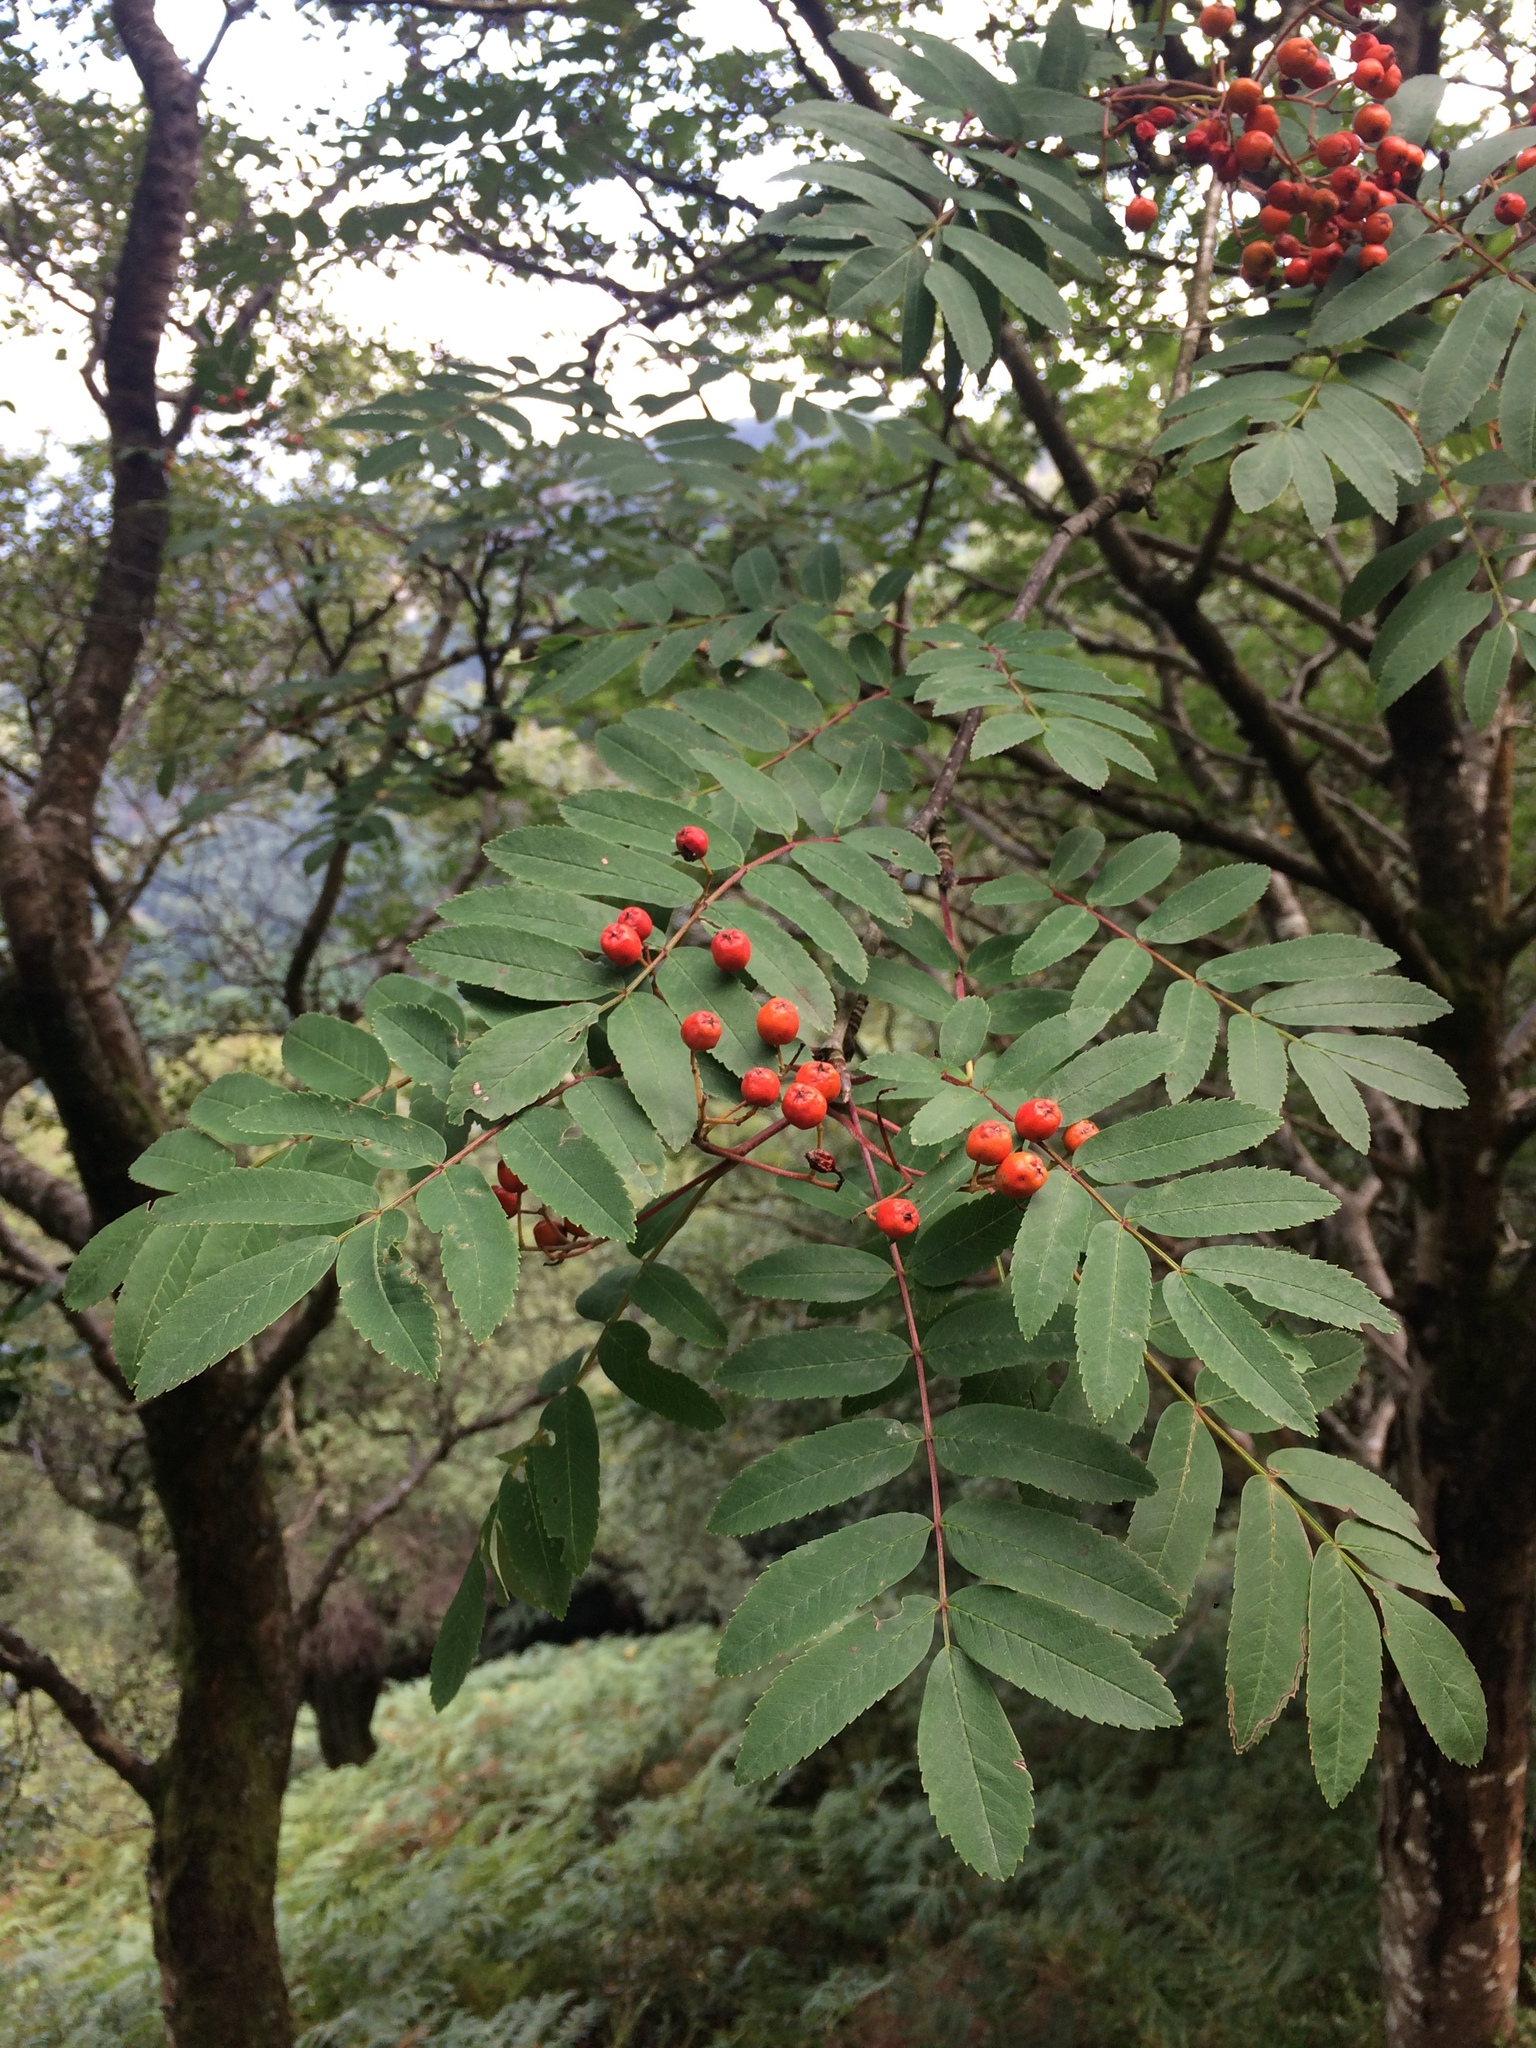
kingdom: Plantae
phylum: Tracheophyta
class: Magnoliopsida
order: Rosales
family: Rosaceae
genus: Sorbus
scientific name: Sorbus aucuparia
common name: Rowan
